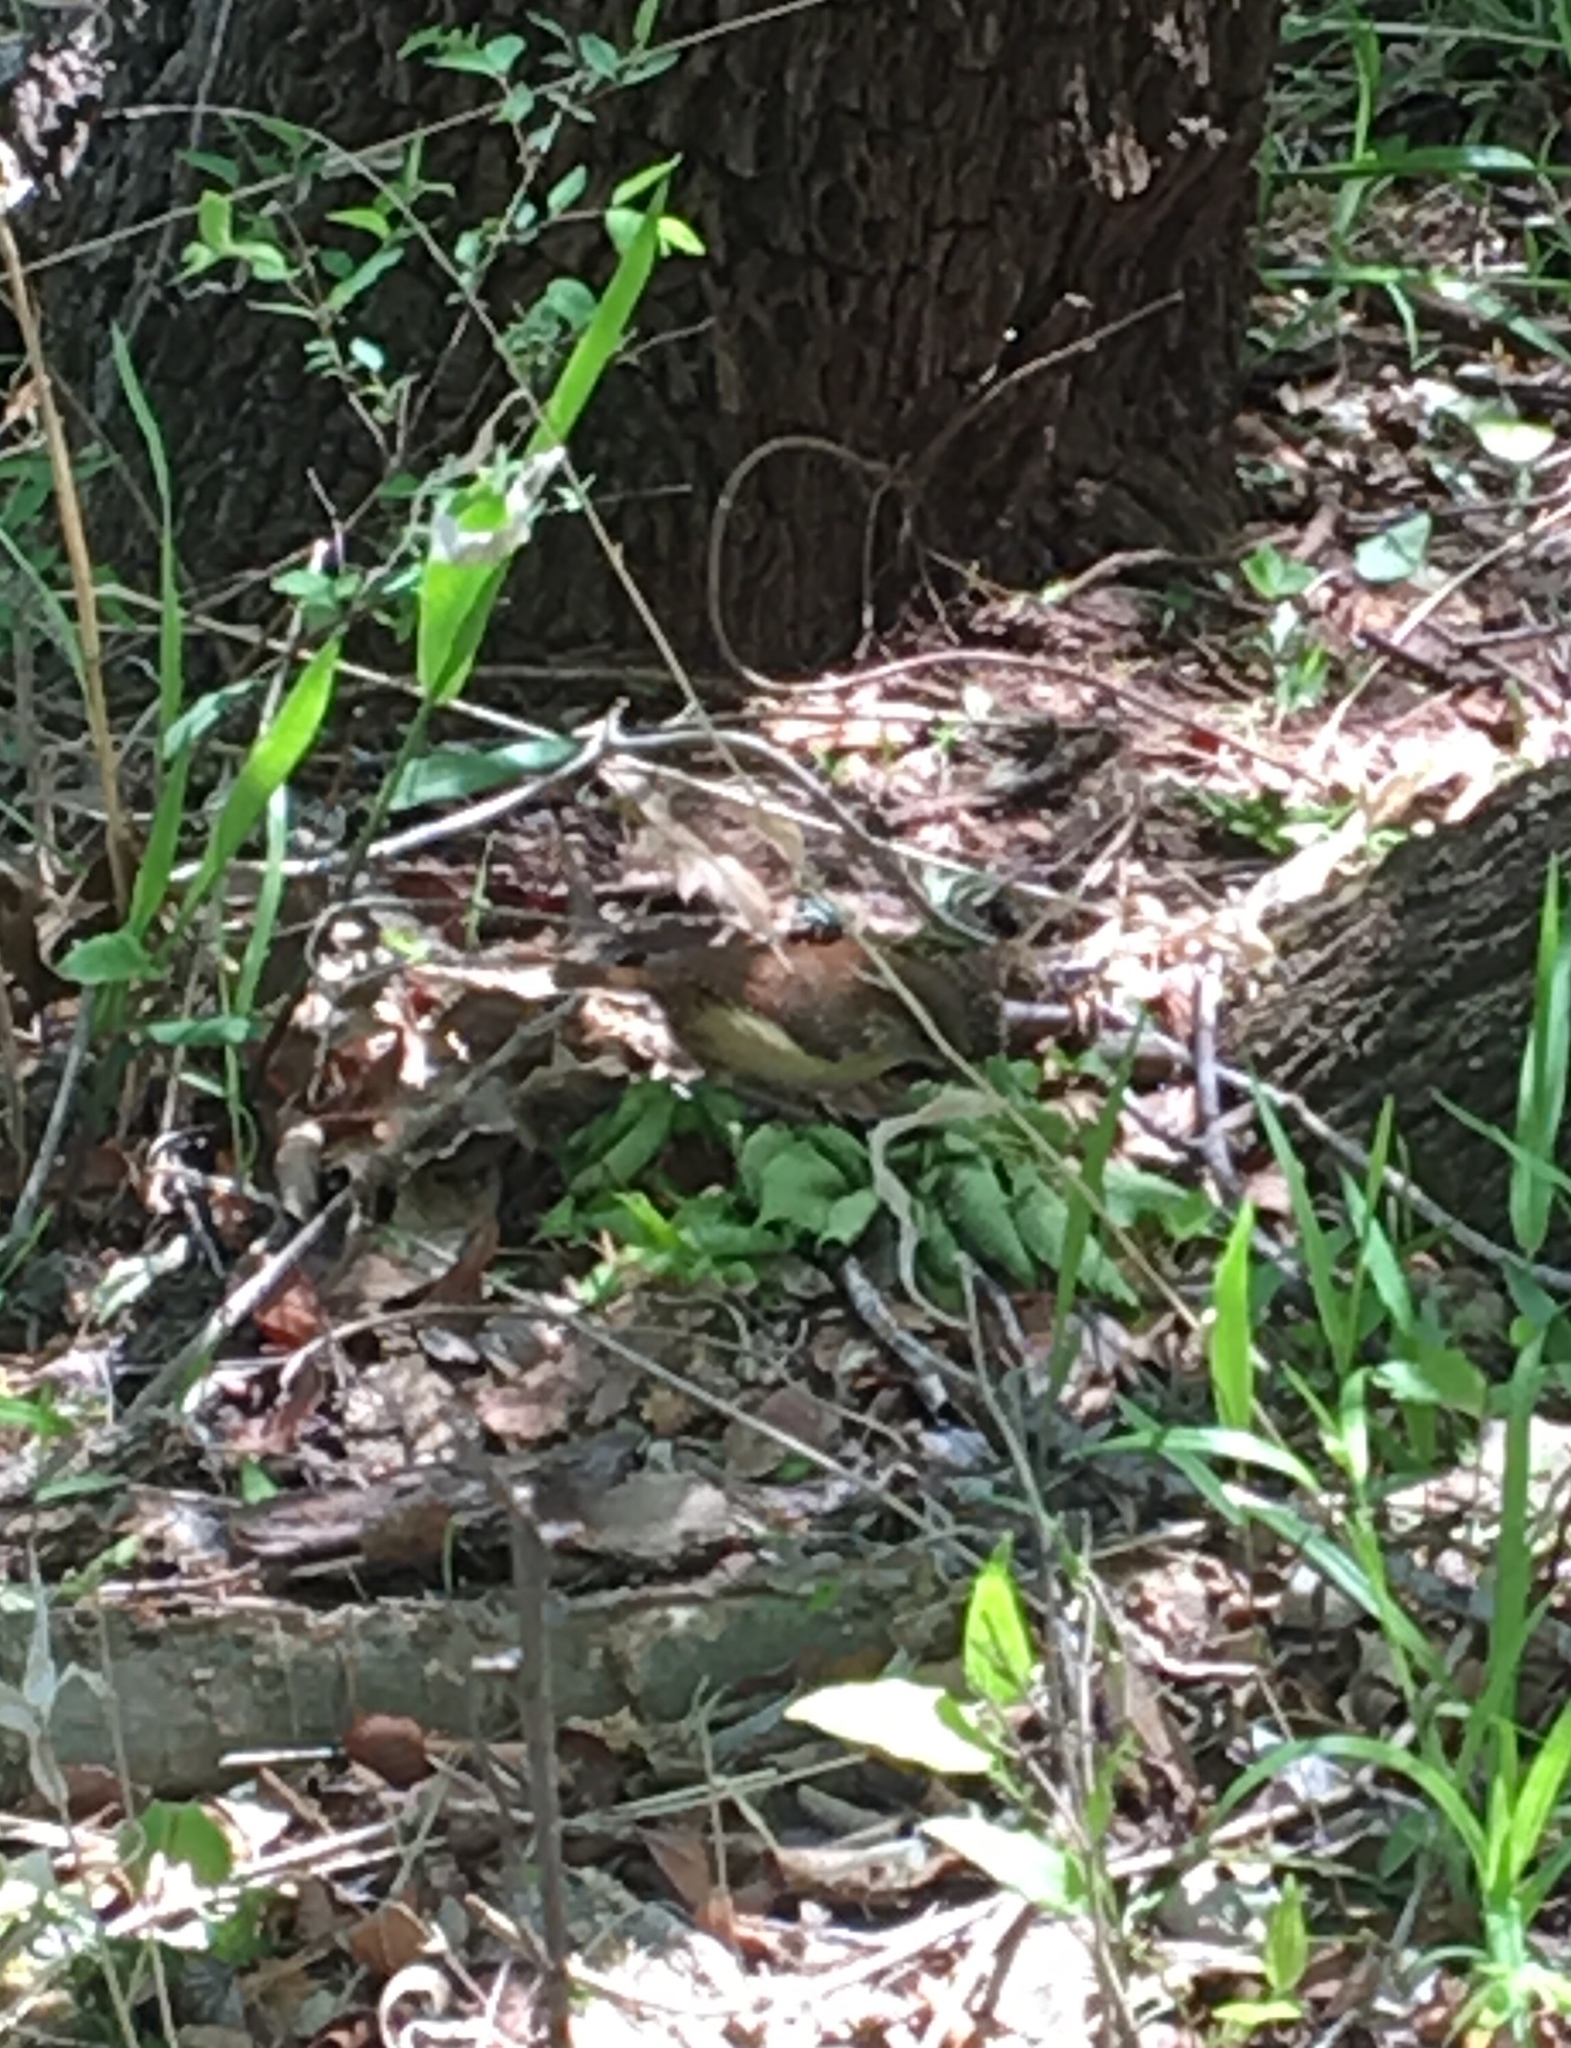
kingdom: Animalia
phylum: Chordata
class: Aves
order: Passeriformes
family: Troglodytidae
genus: Thryothorus
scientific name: Thryothorus ludovicianus
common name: Carolina wren
